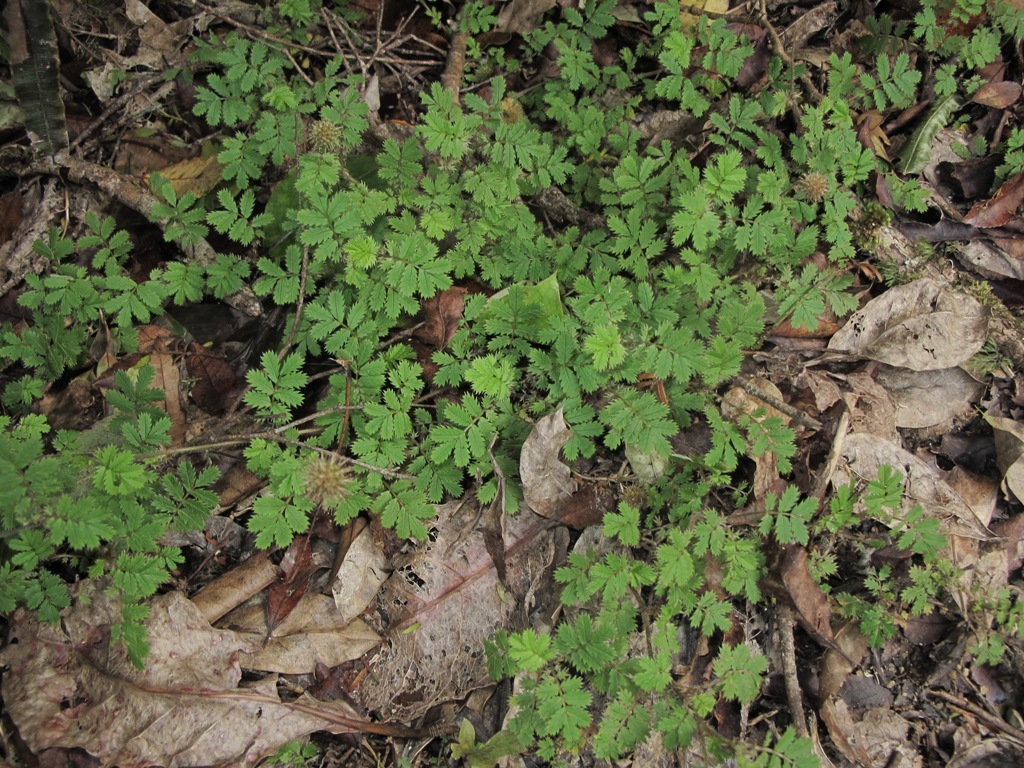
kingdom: Plantae
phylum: Tracheophyta
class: Magnoliopsida
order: Rosales
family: Rosaceae
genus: Acaena
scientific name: Acaena anserinifolia
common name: Bronze pirri-pirri-bur
